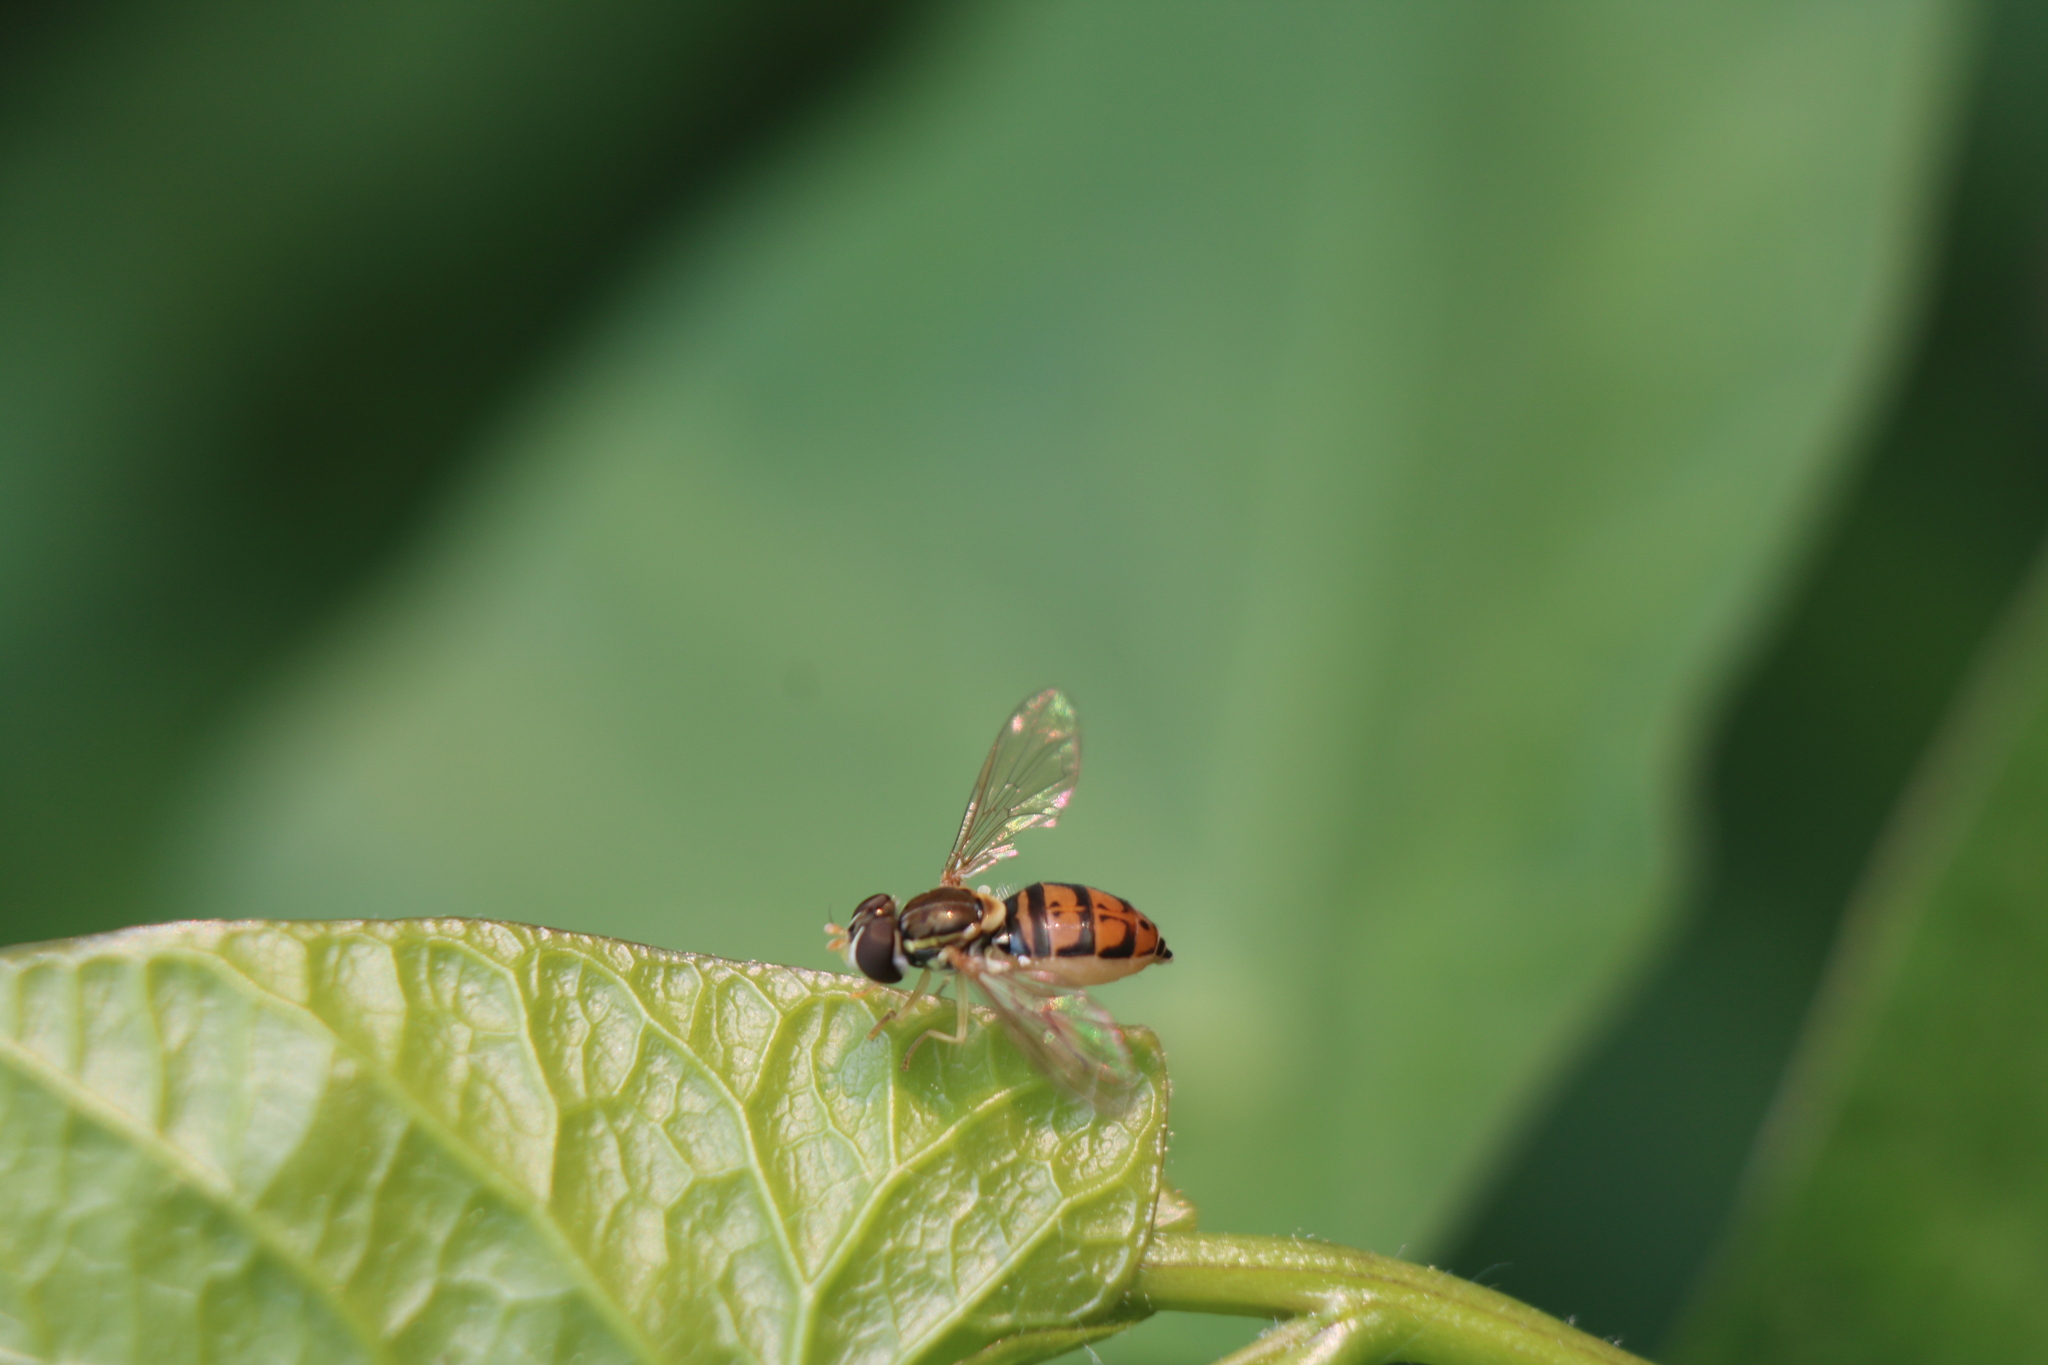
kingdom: Animalia
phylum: Arthropoda
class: Insecta
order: Diptera
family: Syrphidae
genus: Toxomerus
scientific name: Toxomerus marginatus
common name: Syrphid fly
